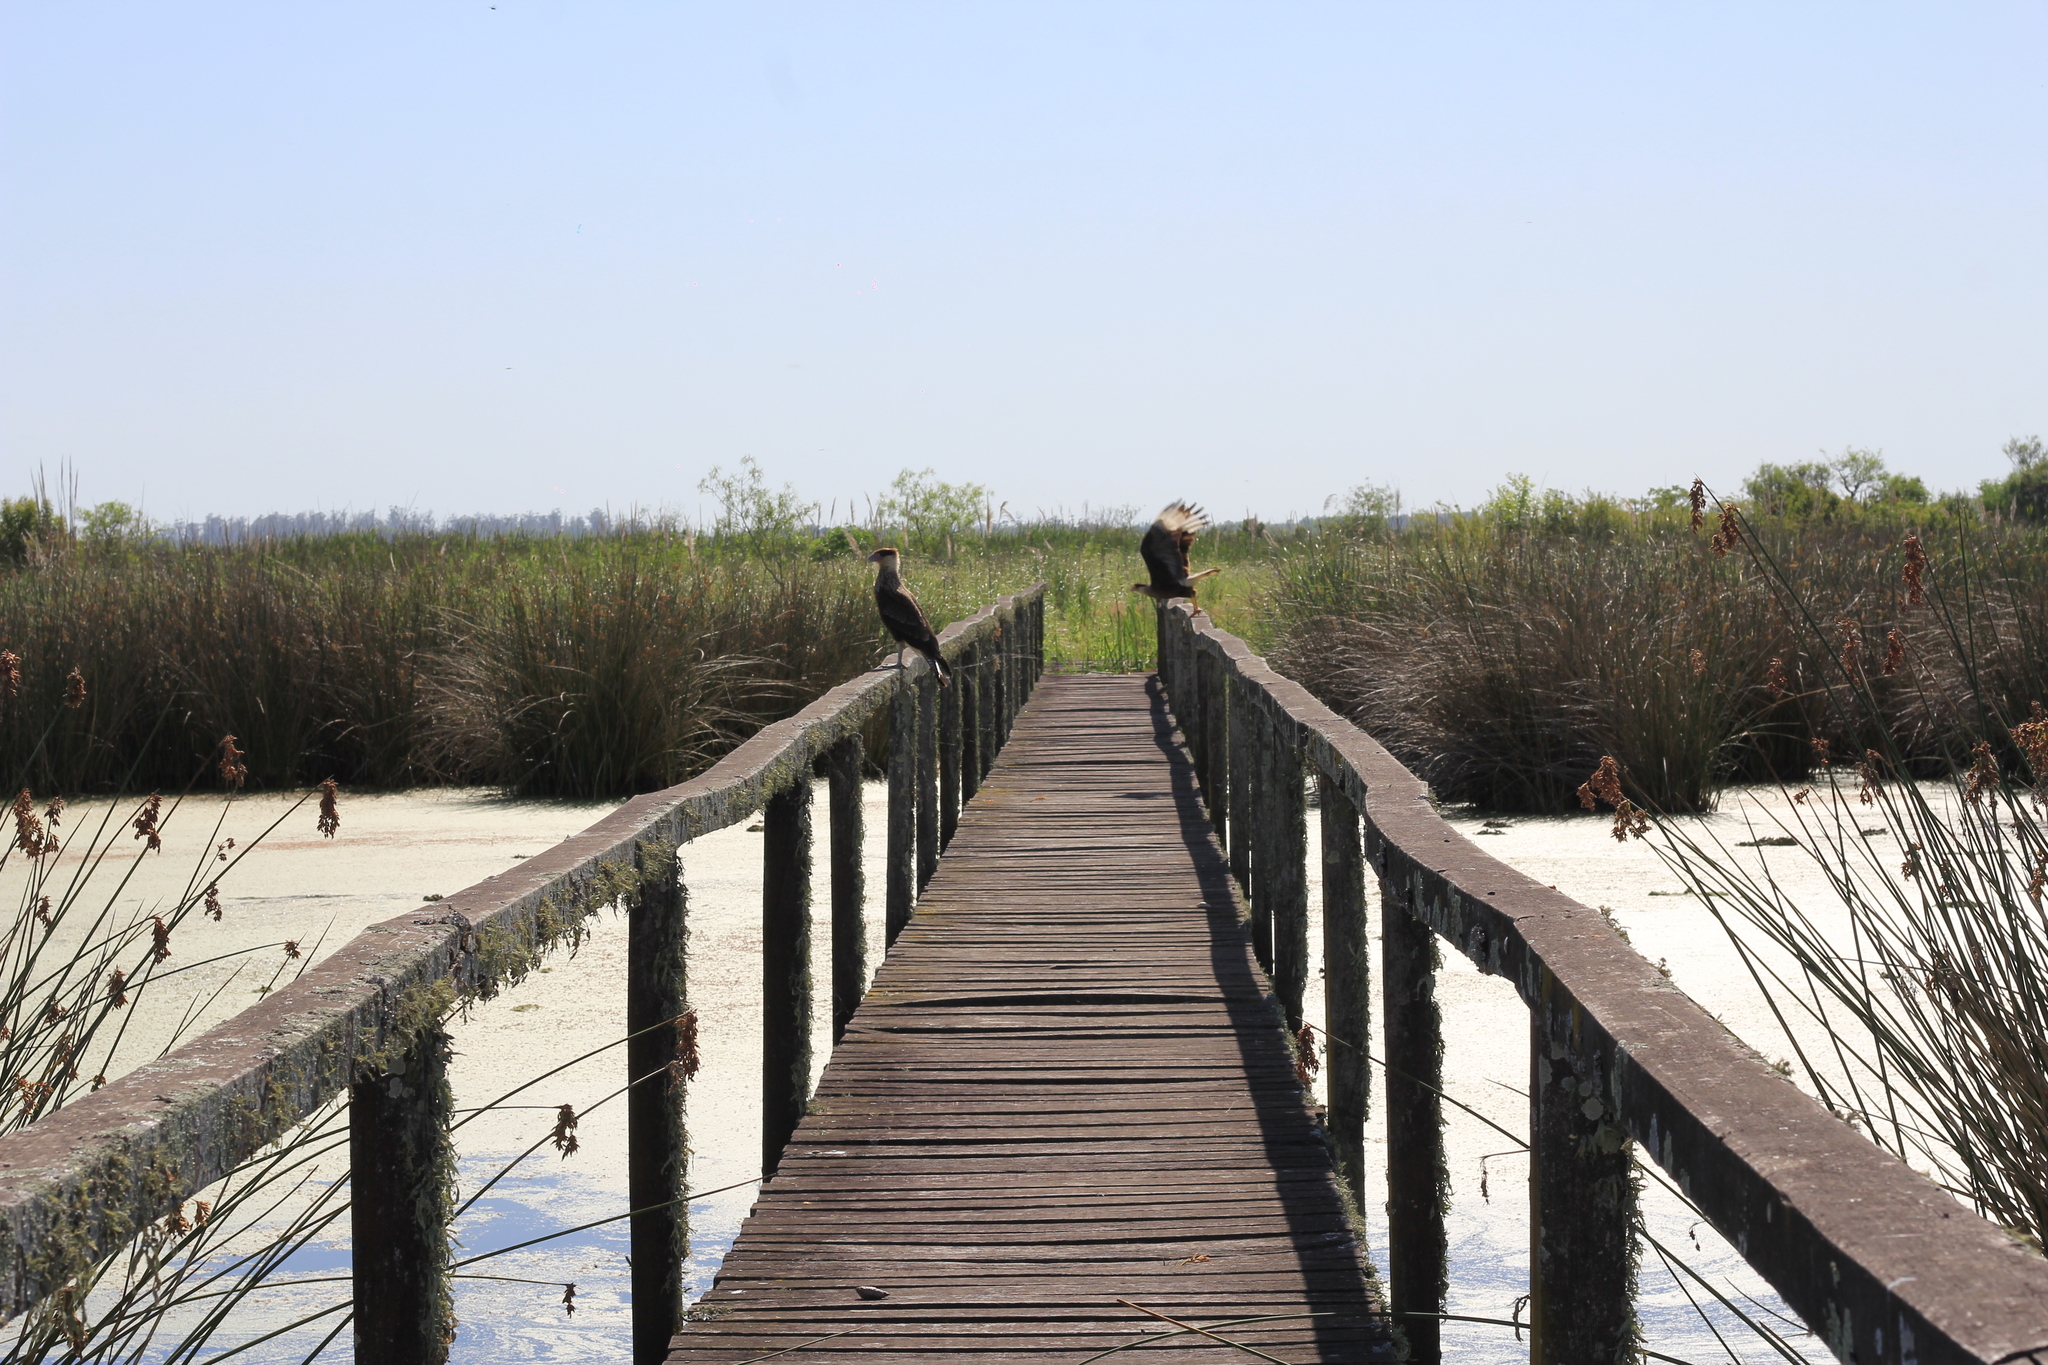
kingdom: Animalia
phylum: Chordata
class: Aves
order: Falconiformes
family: Falconidae
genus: Caracara
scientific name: Caracara plancus
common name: Southern caracara
